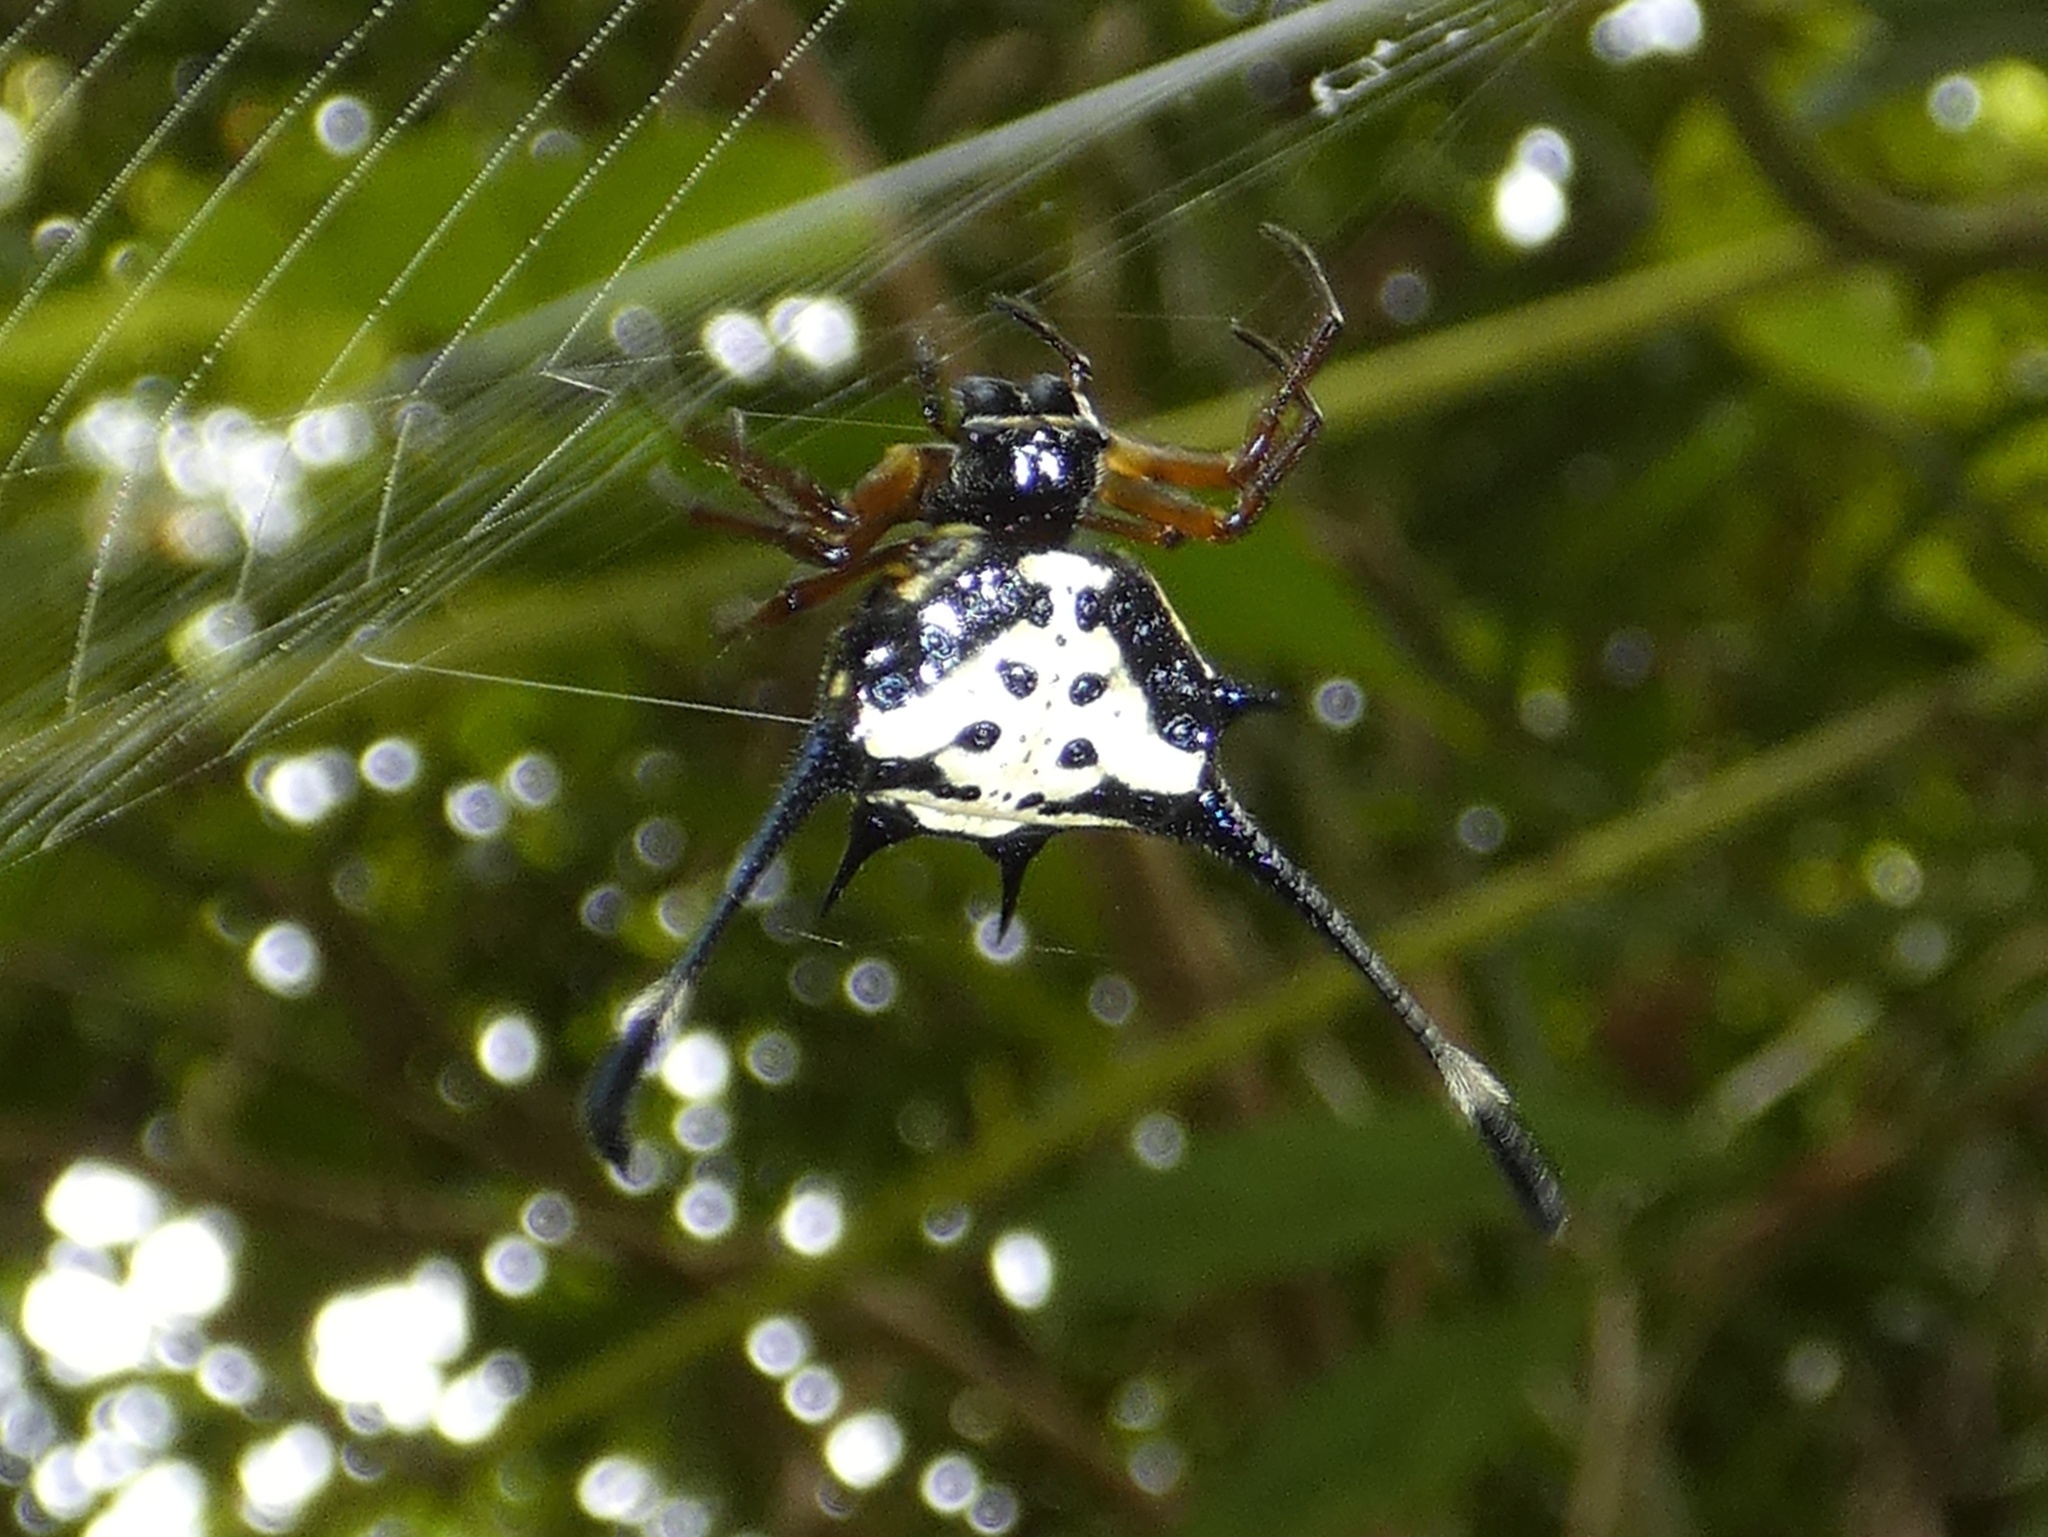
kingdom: Animalia
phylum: Arthropoda
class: Arachnida
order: Araneae
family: Araneidae
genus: Gasteracantha
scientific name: Gasteracantha clavigera
